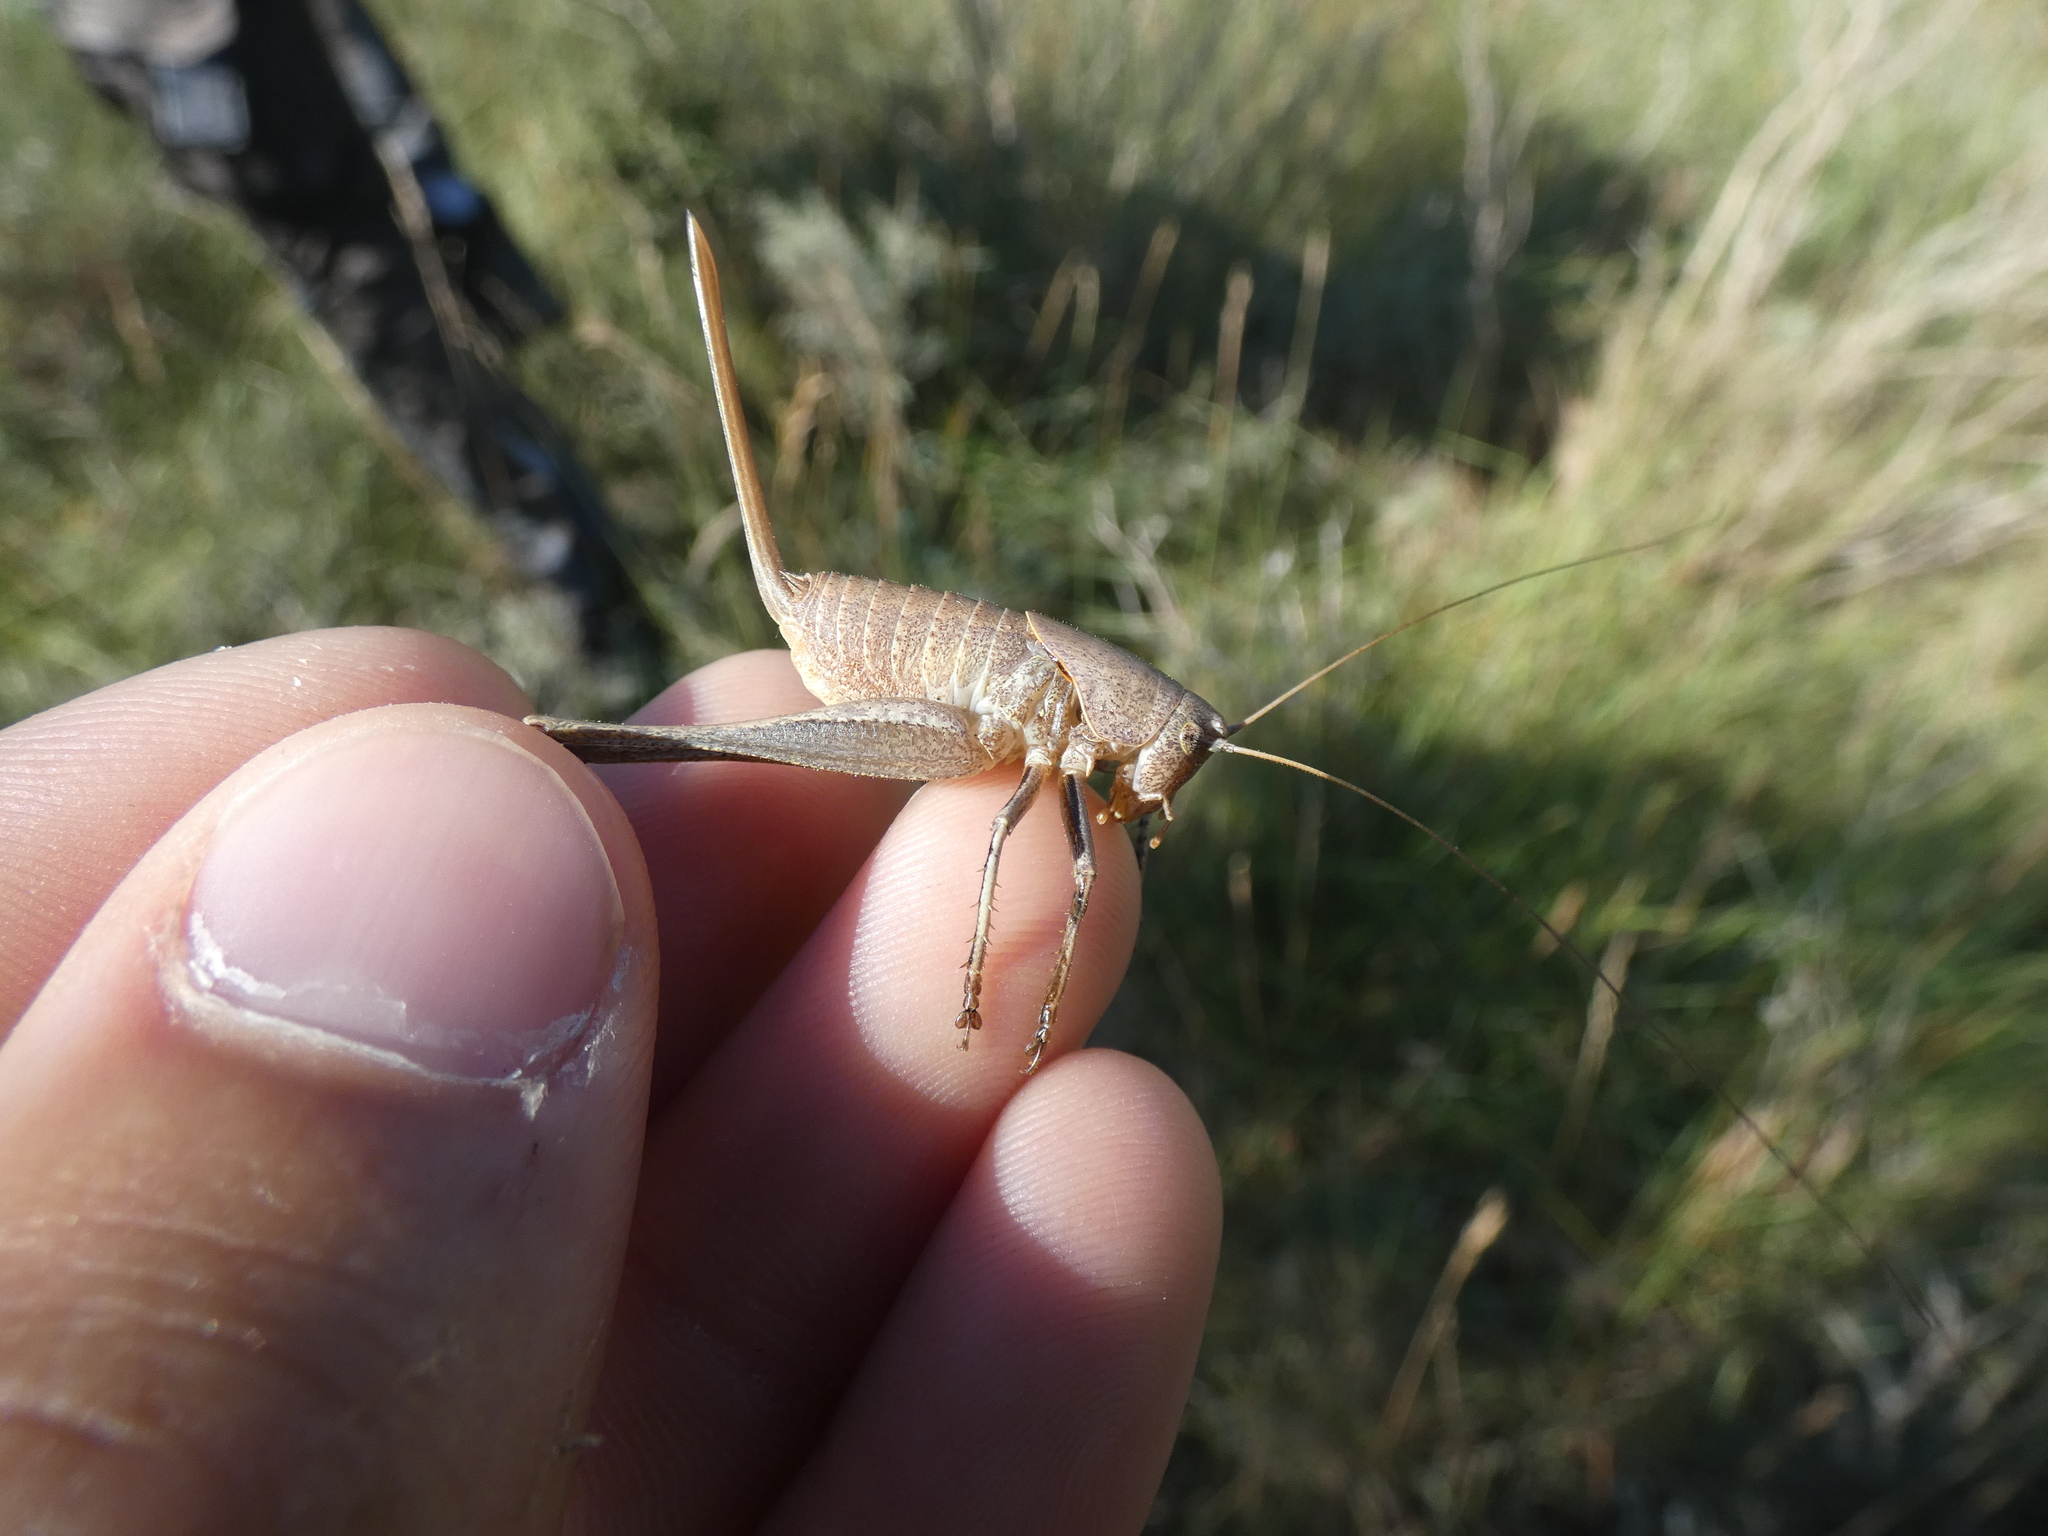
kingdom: Animalia
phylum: Arthropoda
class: Insecta
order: Orthoptera
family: Tettigoniidae
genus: Thyreonotus
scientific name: Thyreonotus corsicus
